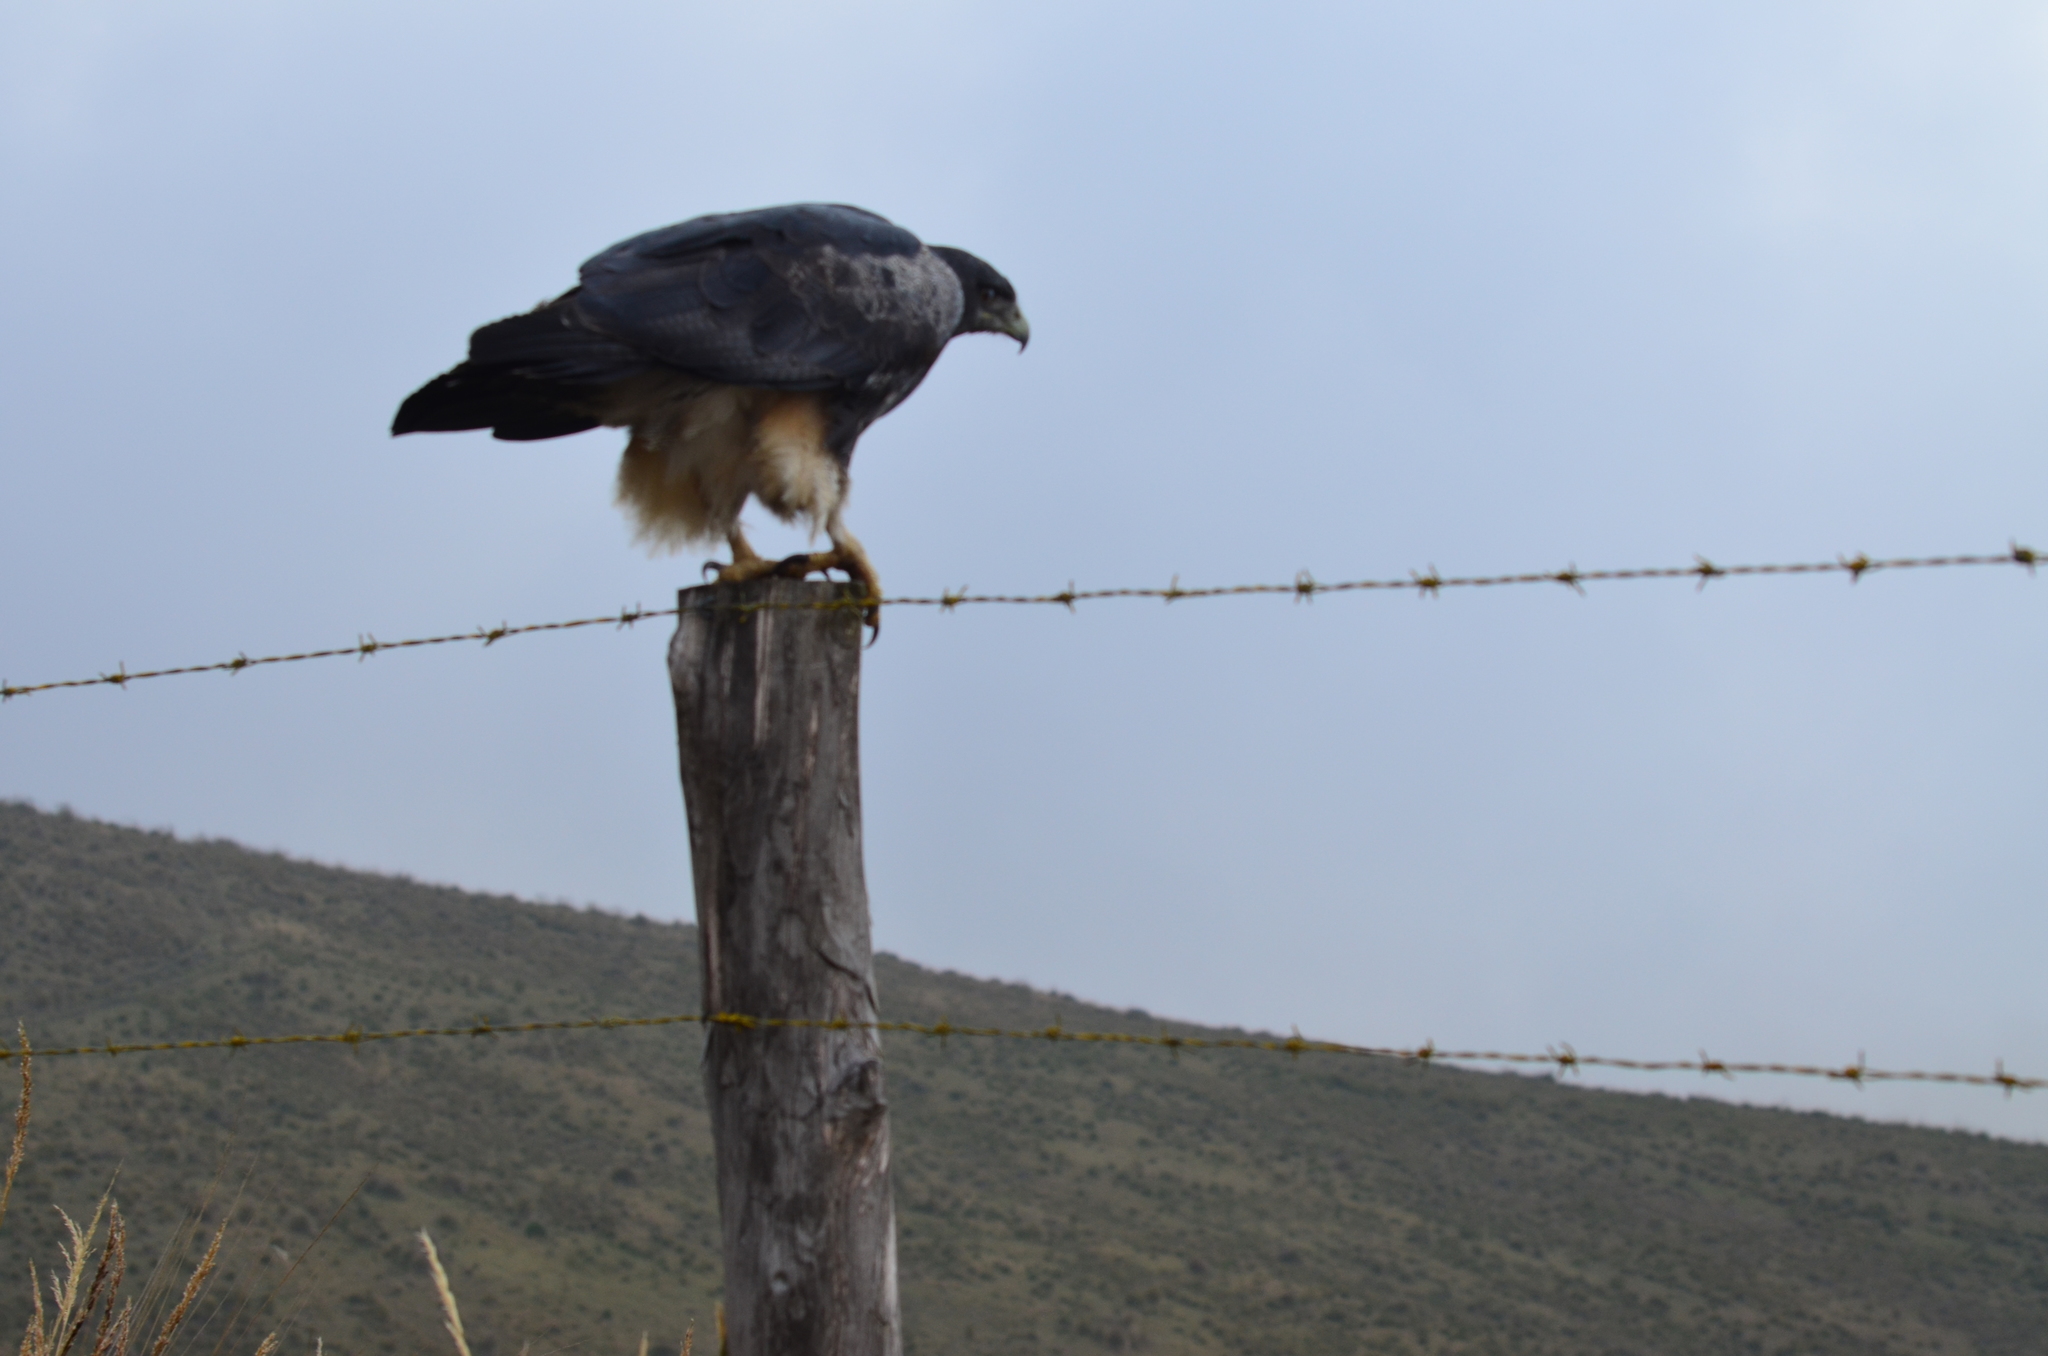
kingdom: Animalia
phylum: Chordata
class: Aves
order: Accipitriformes
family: Accipitridae
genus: Geranoaetus
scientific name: Geranoaetus melanoleucus
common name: Black-chested buzzard-eagle
